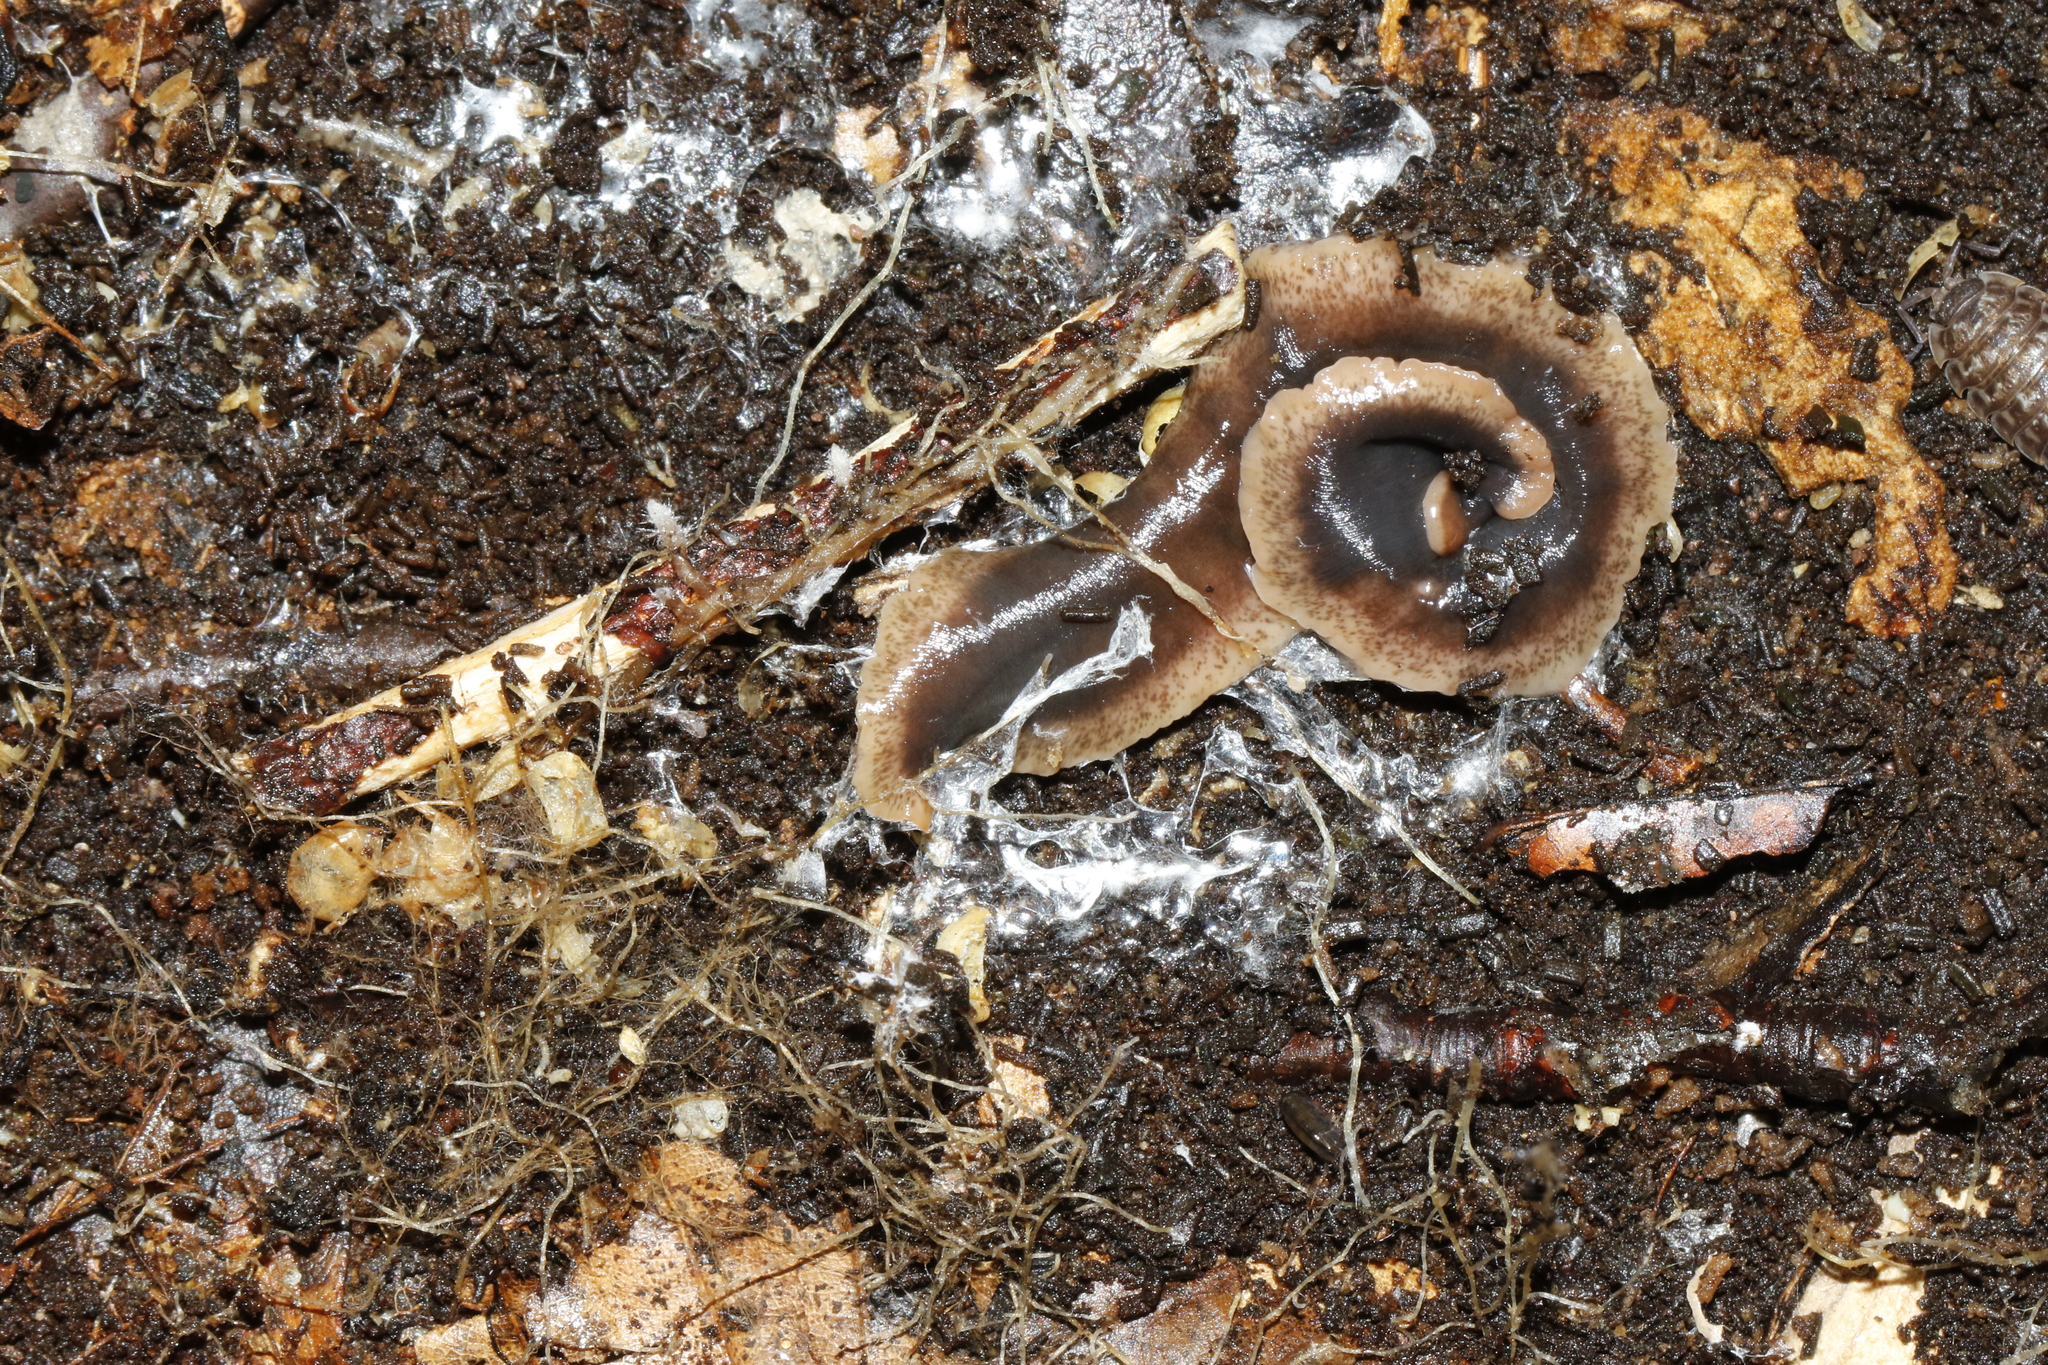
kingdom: Animalia
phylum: Platyhelminthes
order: Tricladida
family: Geoplanidae
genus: Arthurdendyus
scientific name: Arthurdendyus triangulatus
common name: New zealand flatworm
